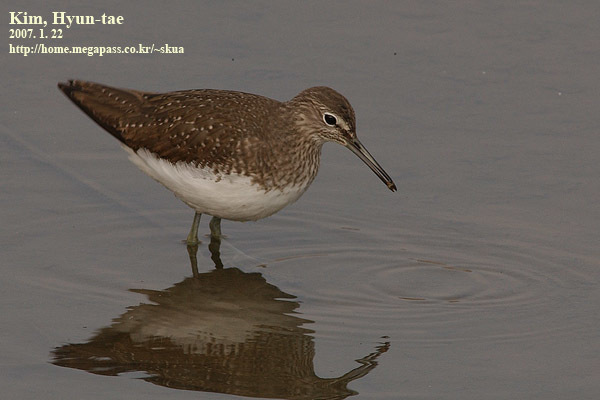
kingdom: Animalia
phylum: Chordata
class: Aves
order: Charadriiformes
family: Scolopacidae
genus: Tringa
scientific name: Tringa ochropus
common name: Green sandpiper
